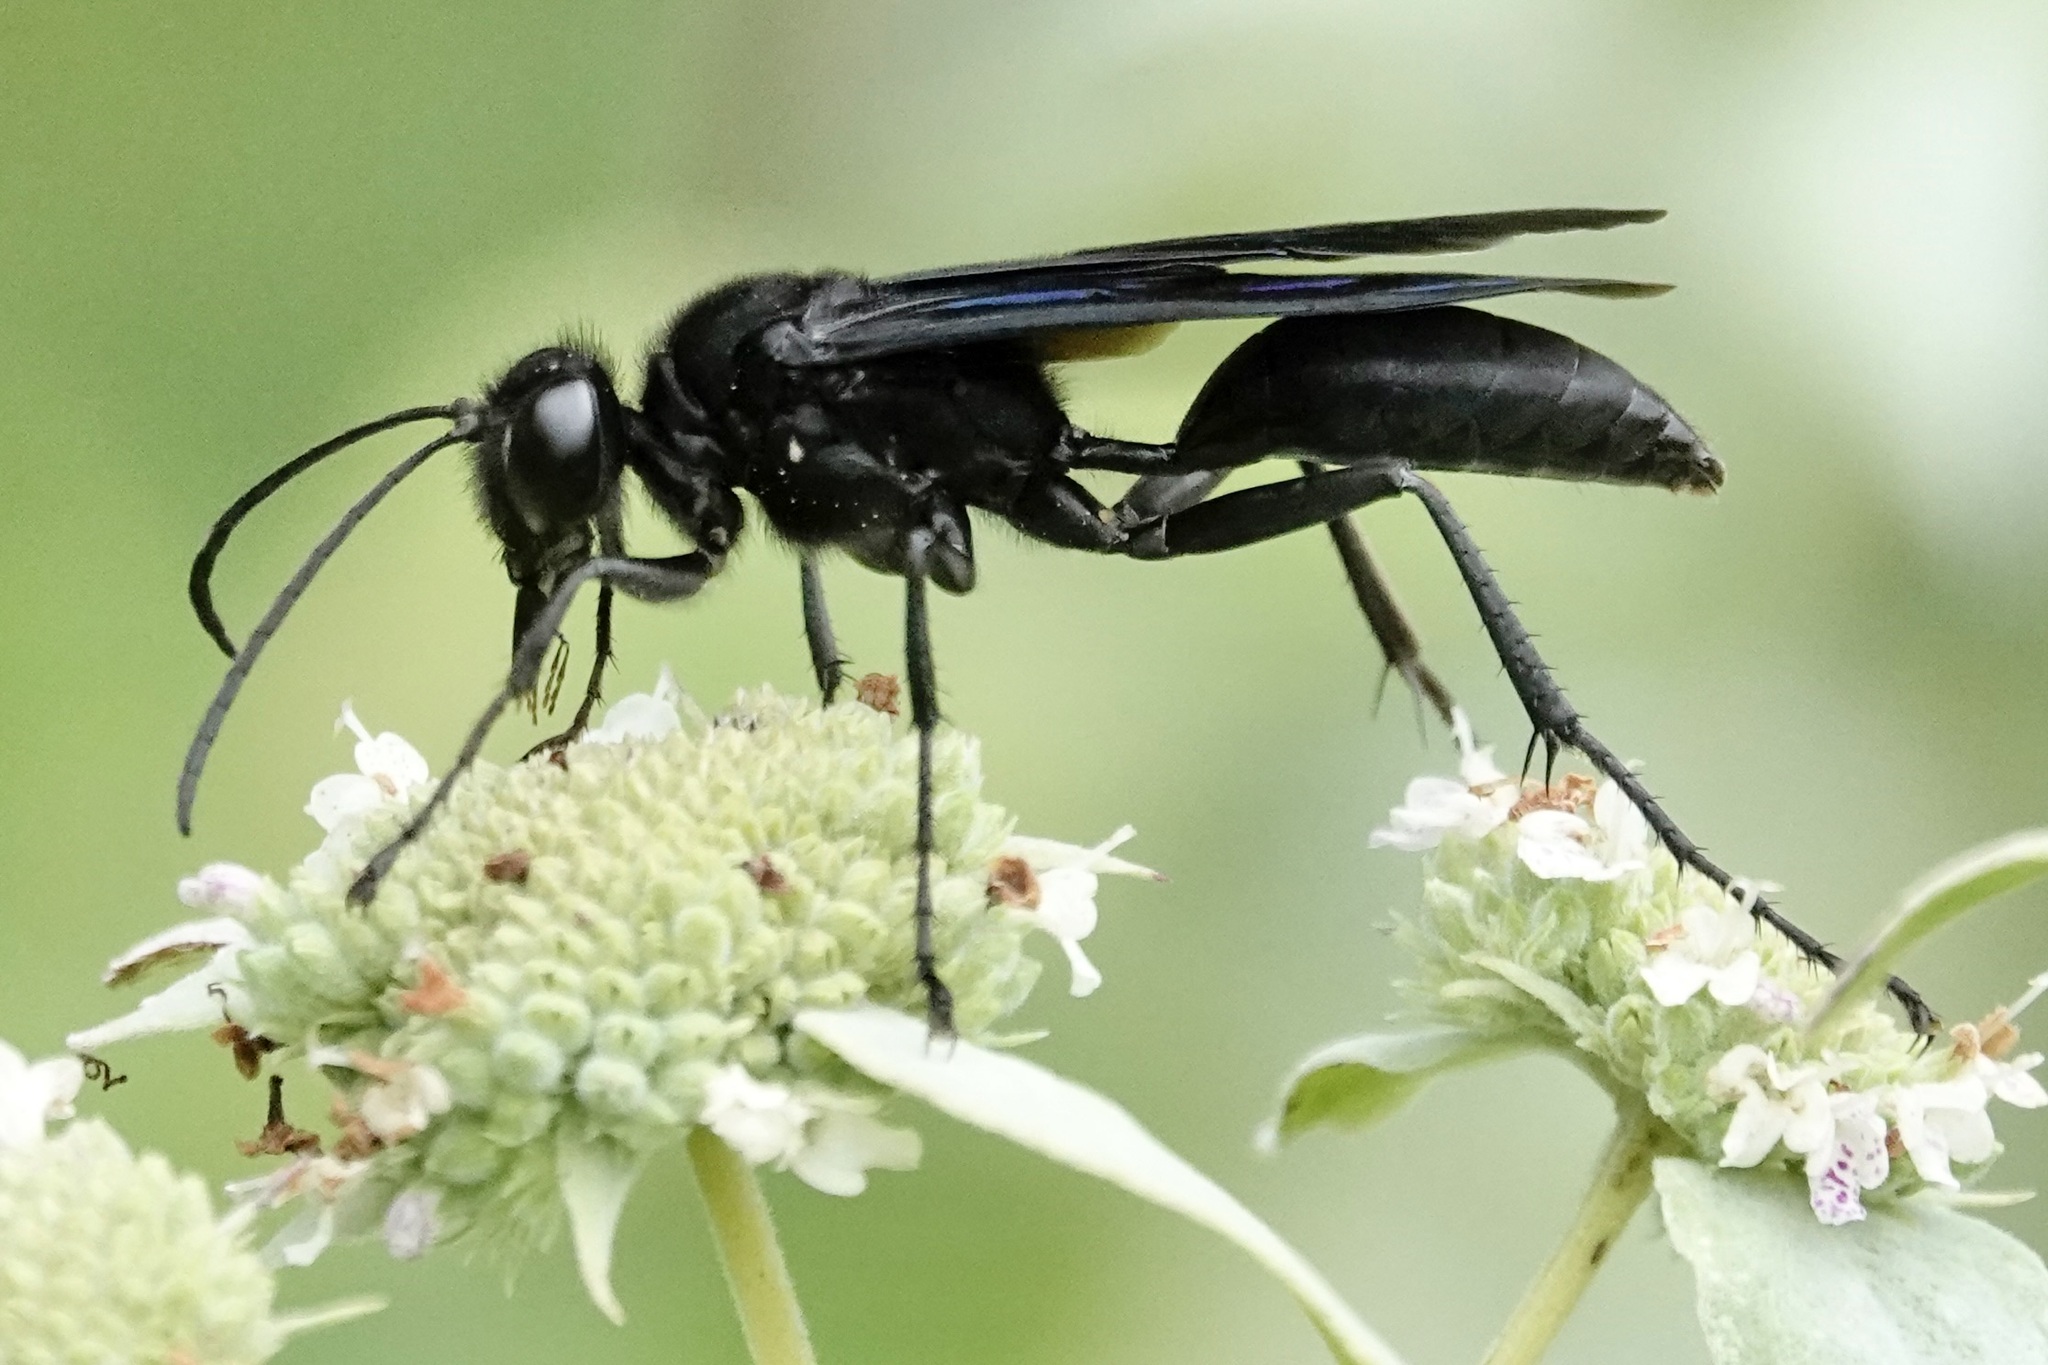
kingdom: Animalia
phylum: Arthropoda
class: Insecta
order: Hymenoptera
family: Sphecidae
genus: Sphex
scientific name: Sphex pensylvanicus
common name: Great black digger wasp
